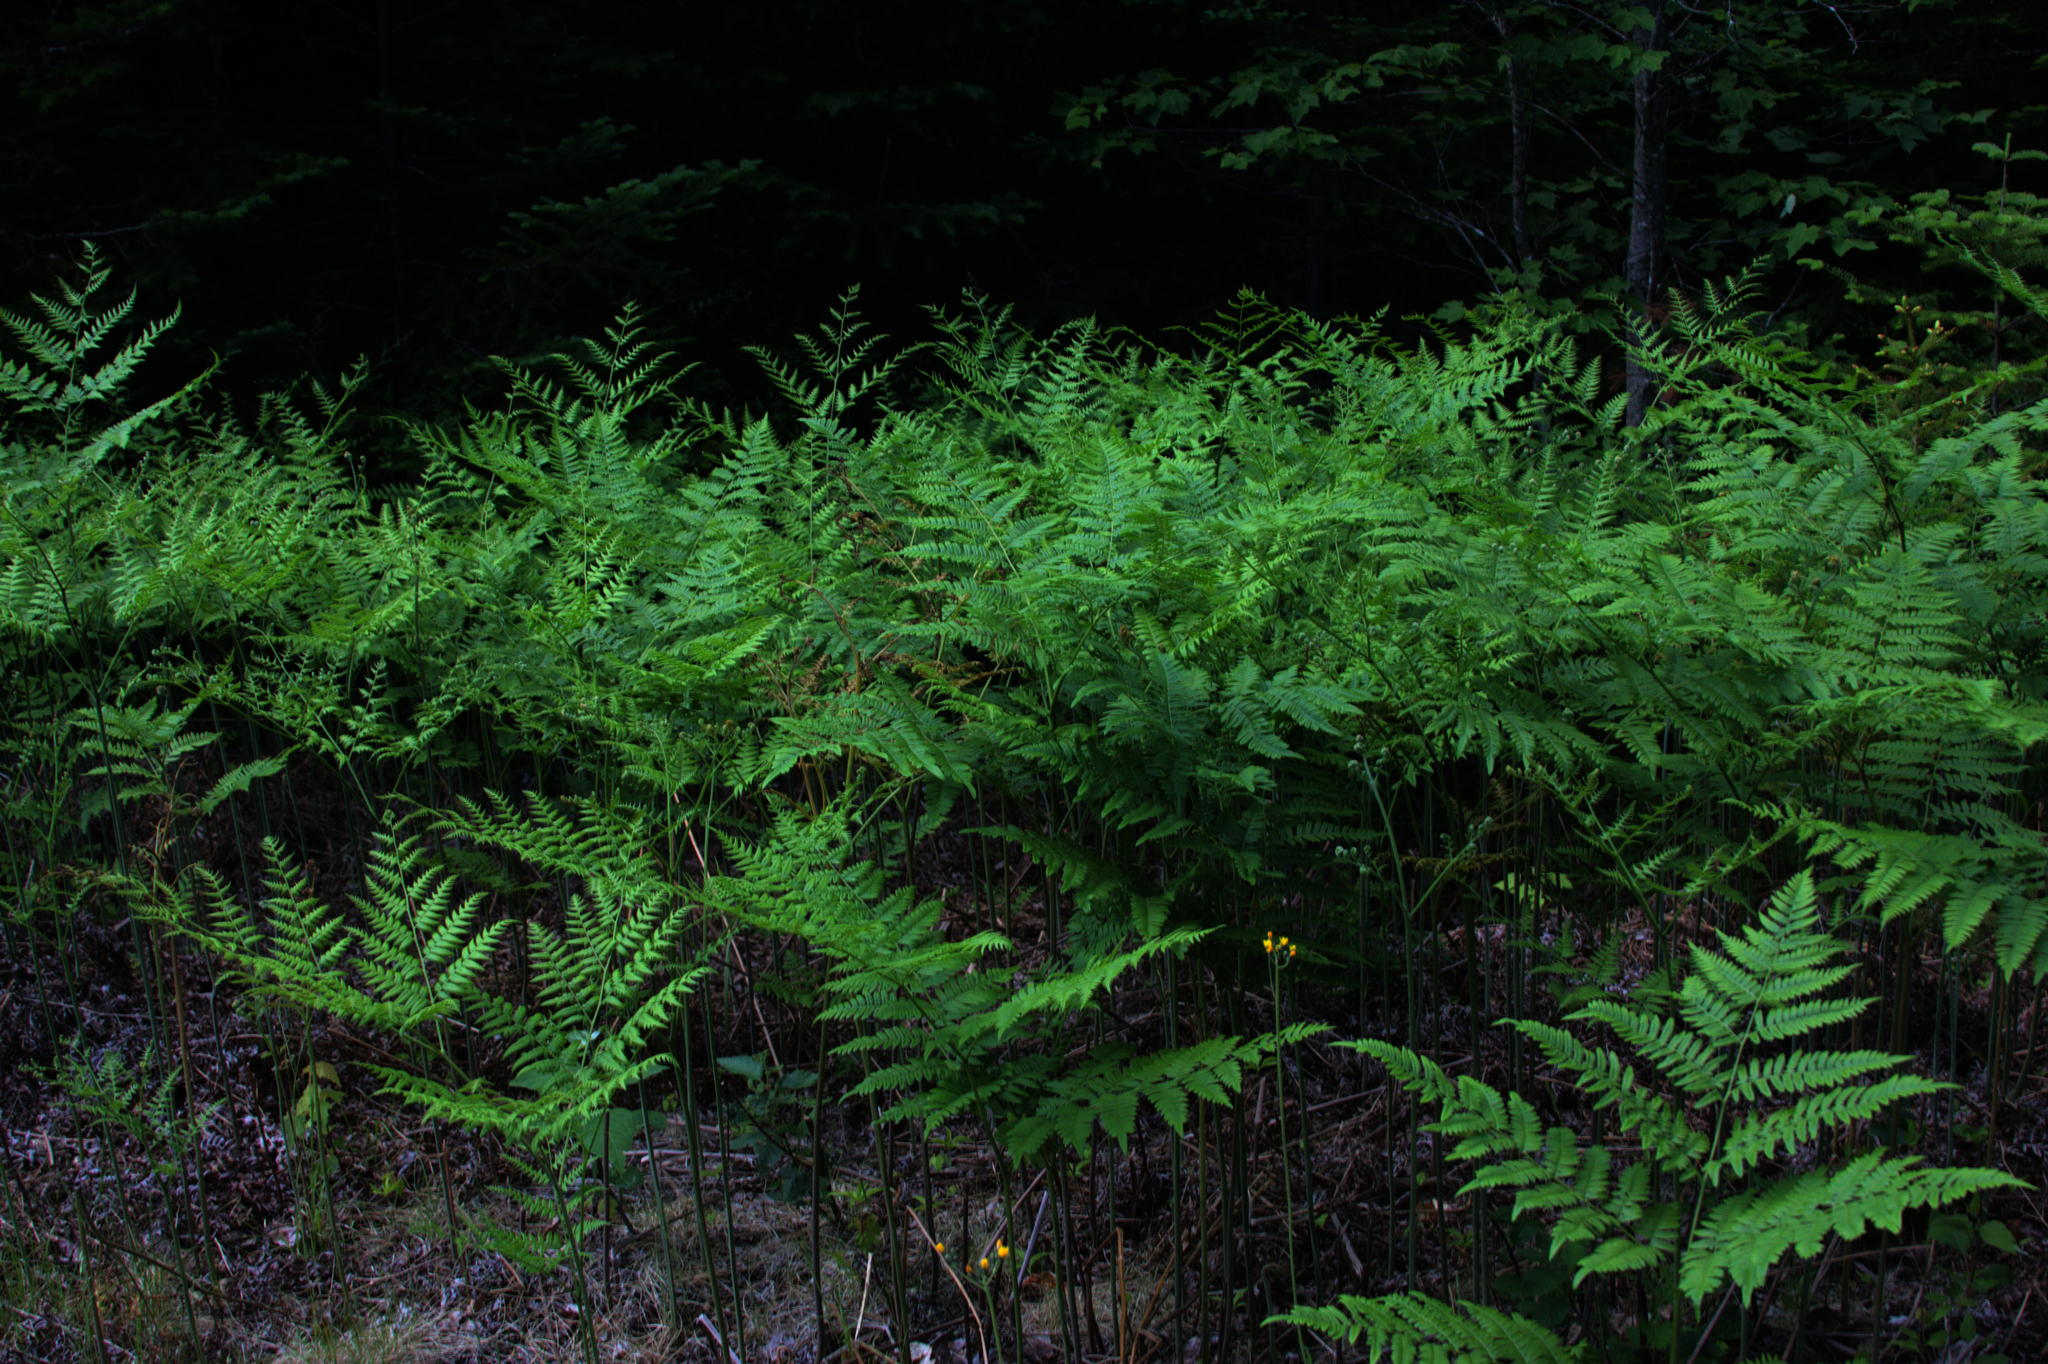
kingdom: Plantae
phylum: Tracheophyta
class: Polypodiopsida
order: Polypodiales
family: Dennstaedtiaceae
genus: Pteridium
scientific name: Pteridium aquilinum
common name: Bracken
